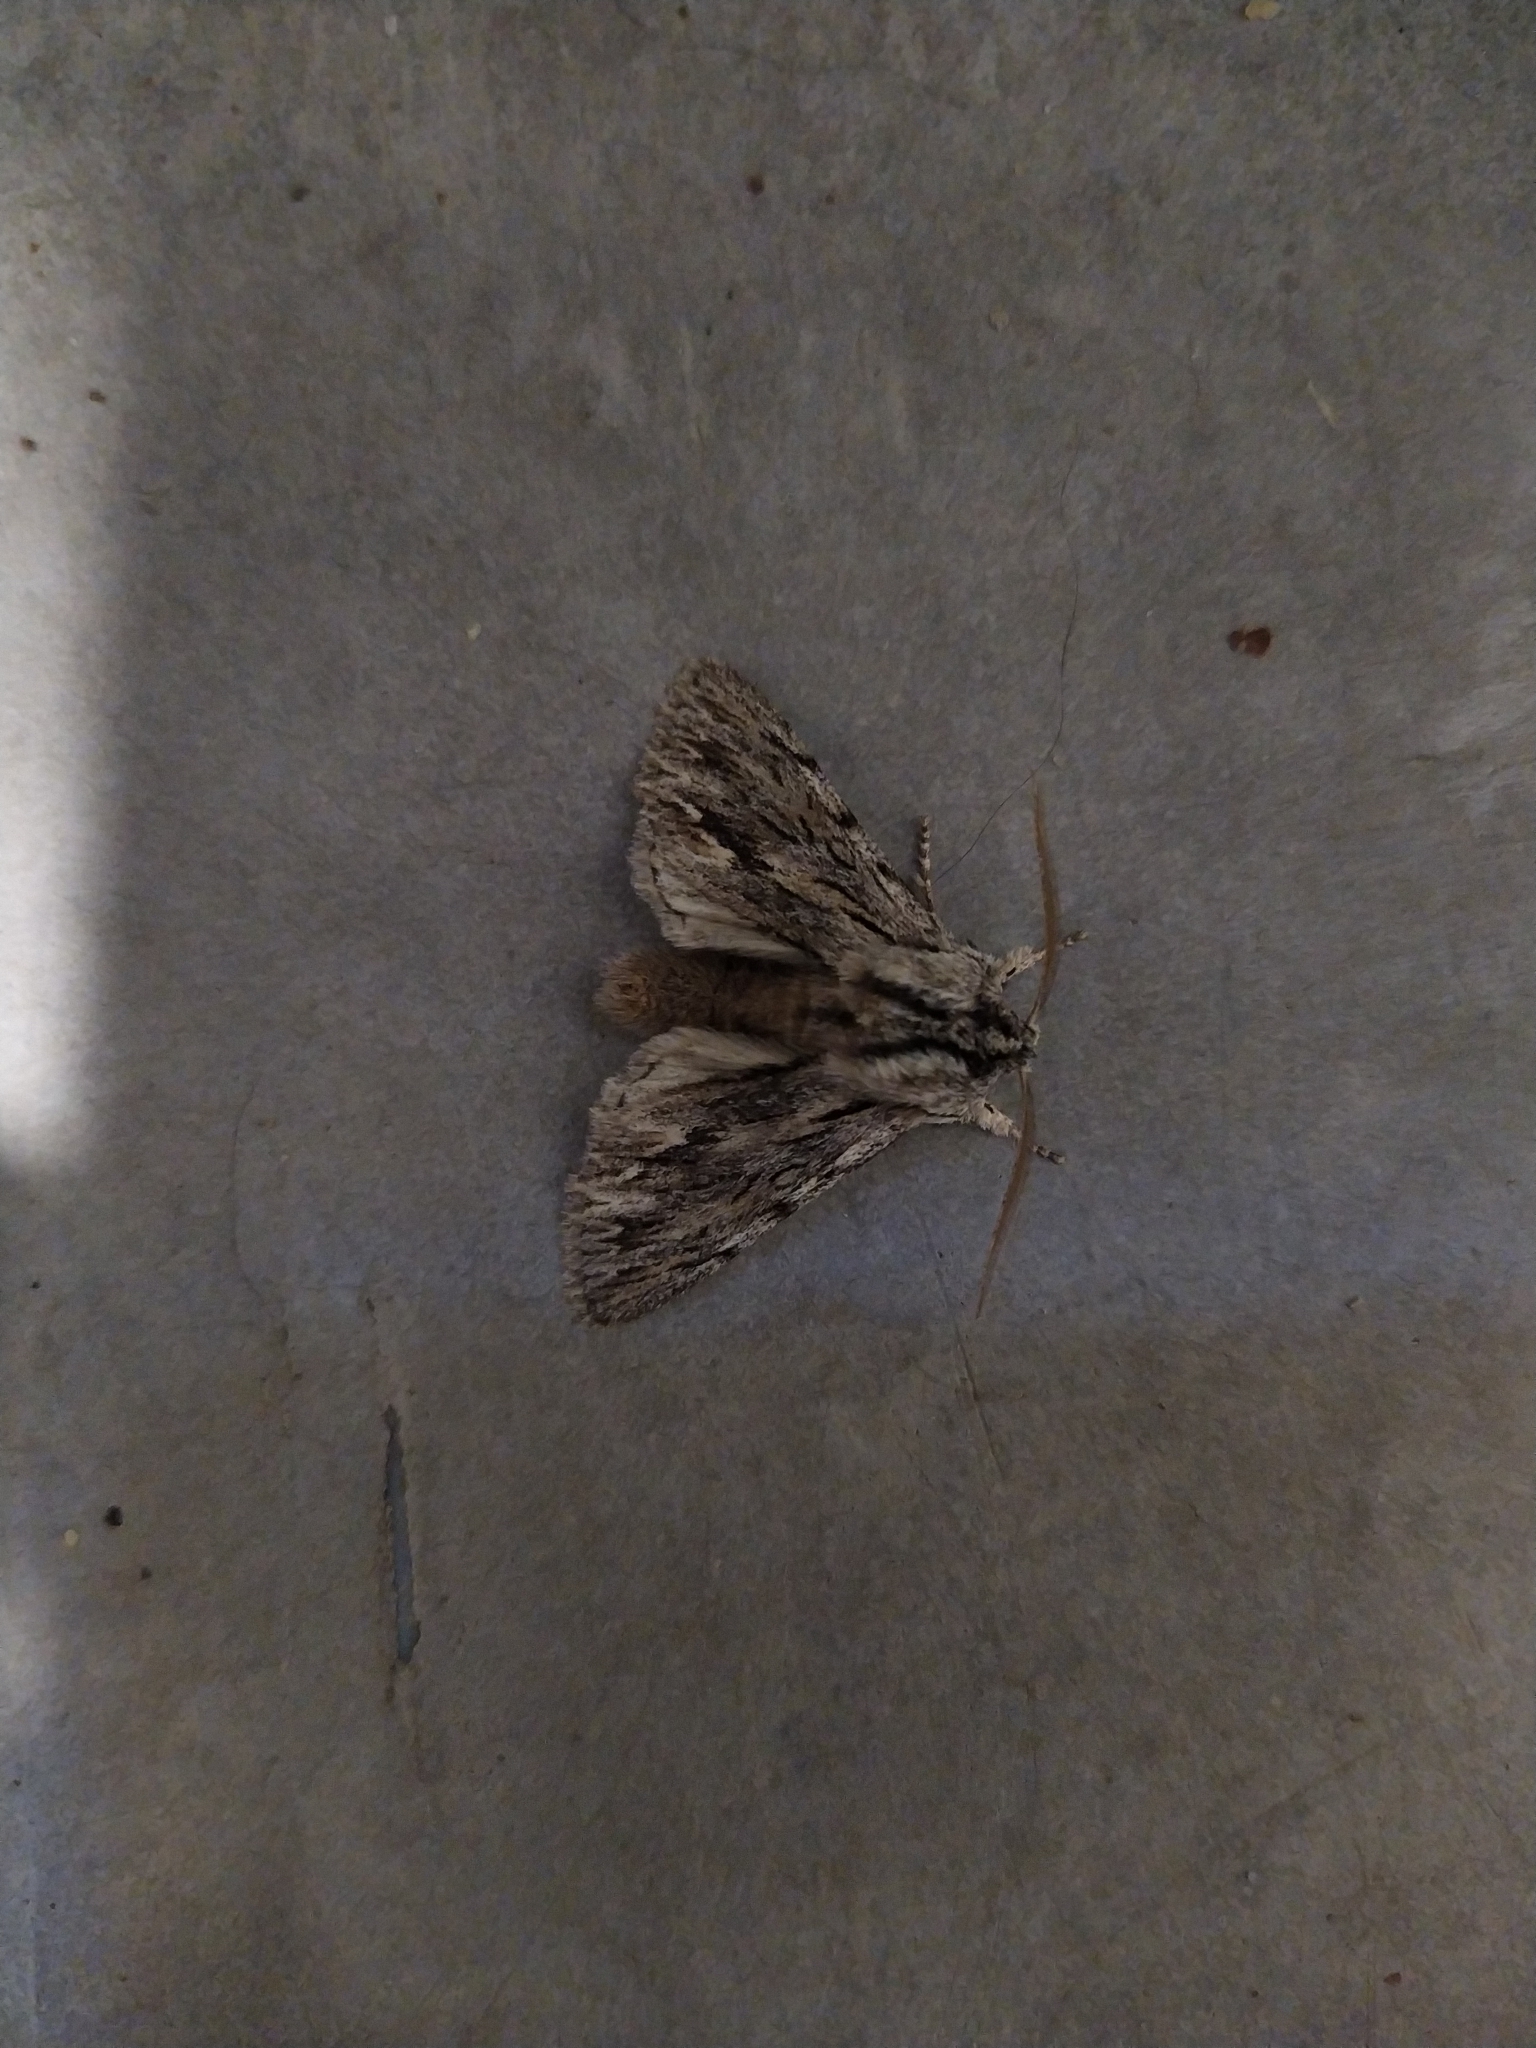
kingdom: Animalia
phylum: Arthropoda
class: Insecta
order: Lepidoptera
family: Noctuidae
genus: Asteroscopus
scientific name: Asteroscopus sphinx
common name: The sprawler
